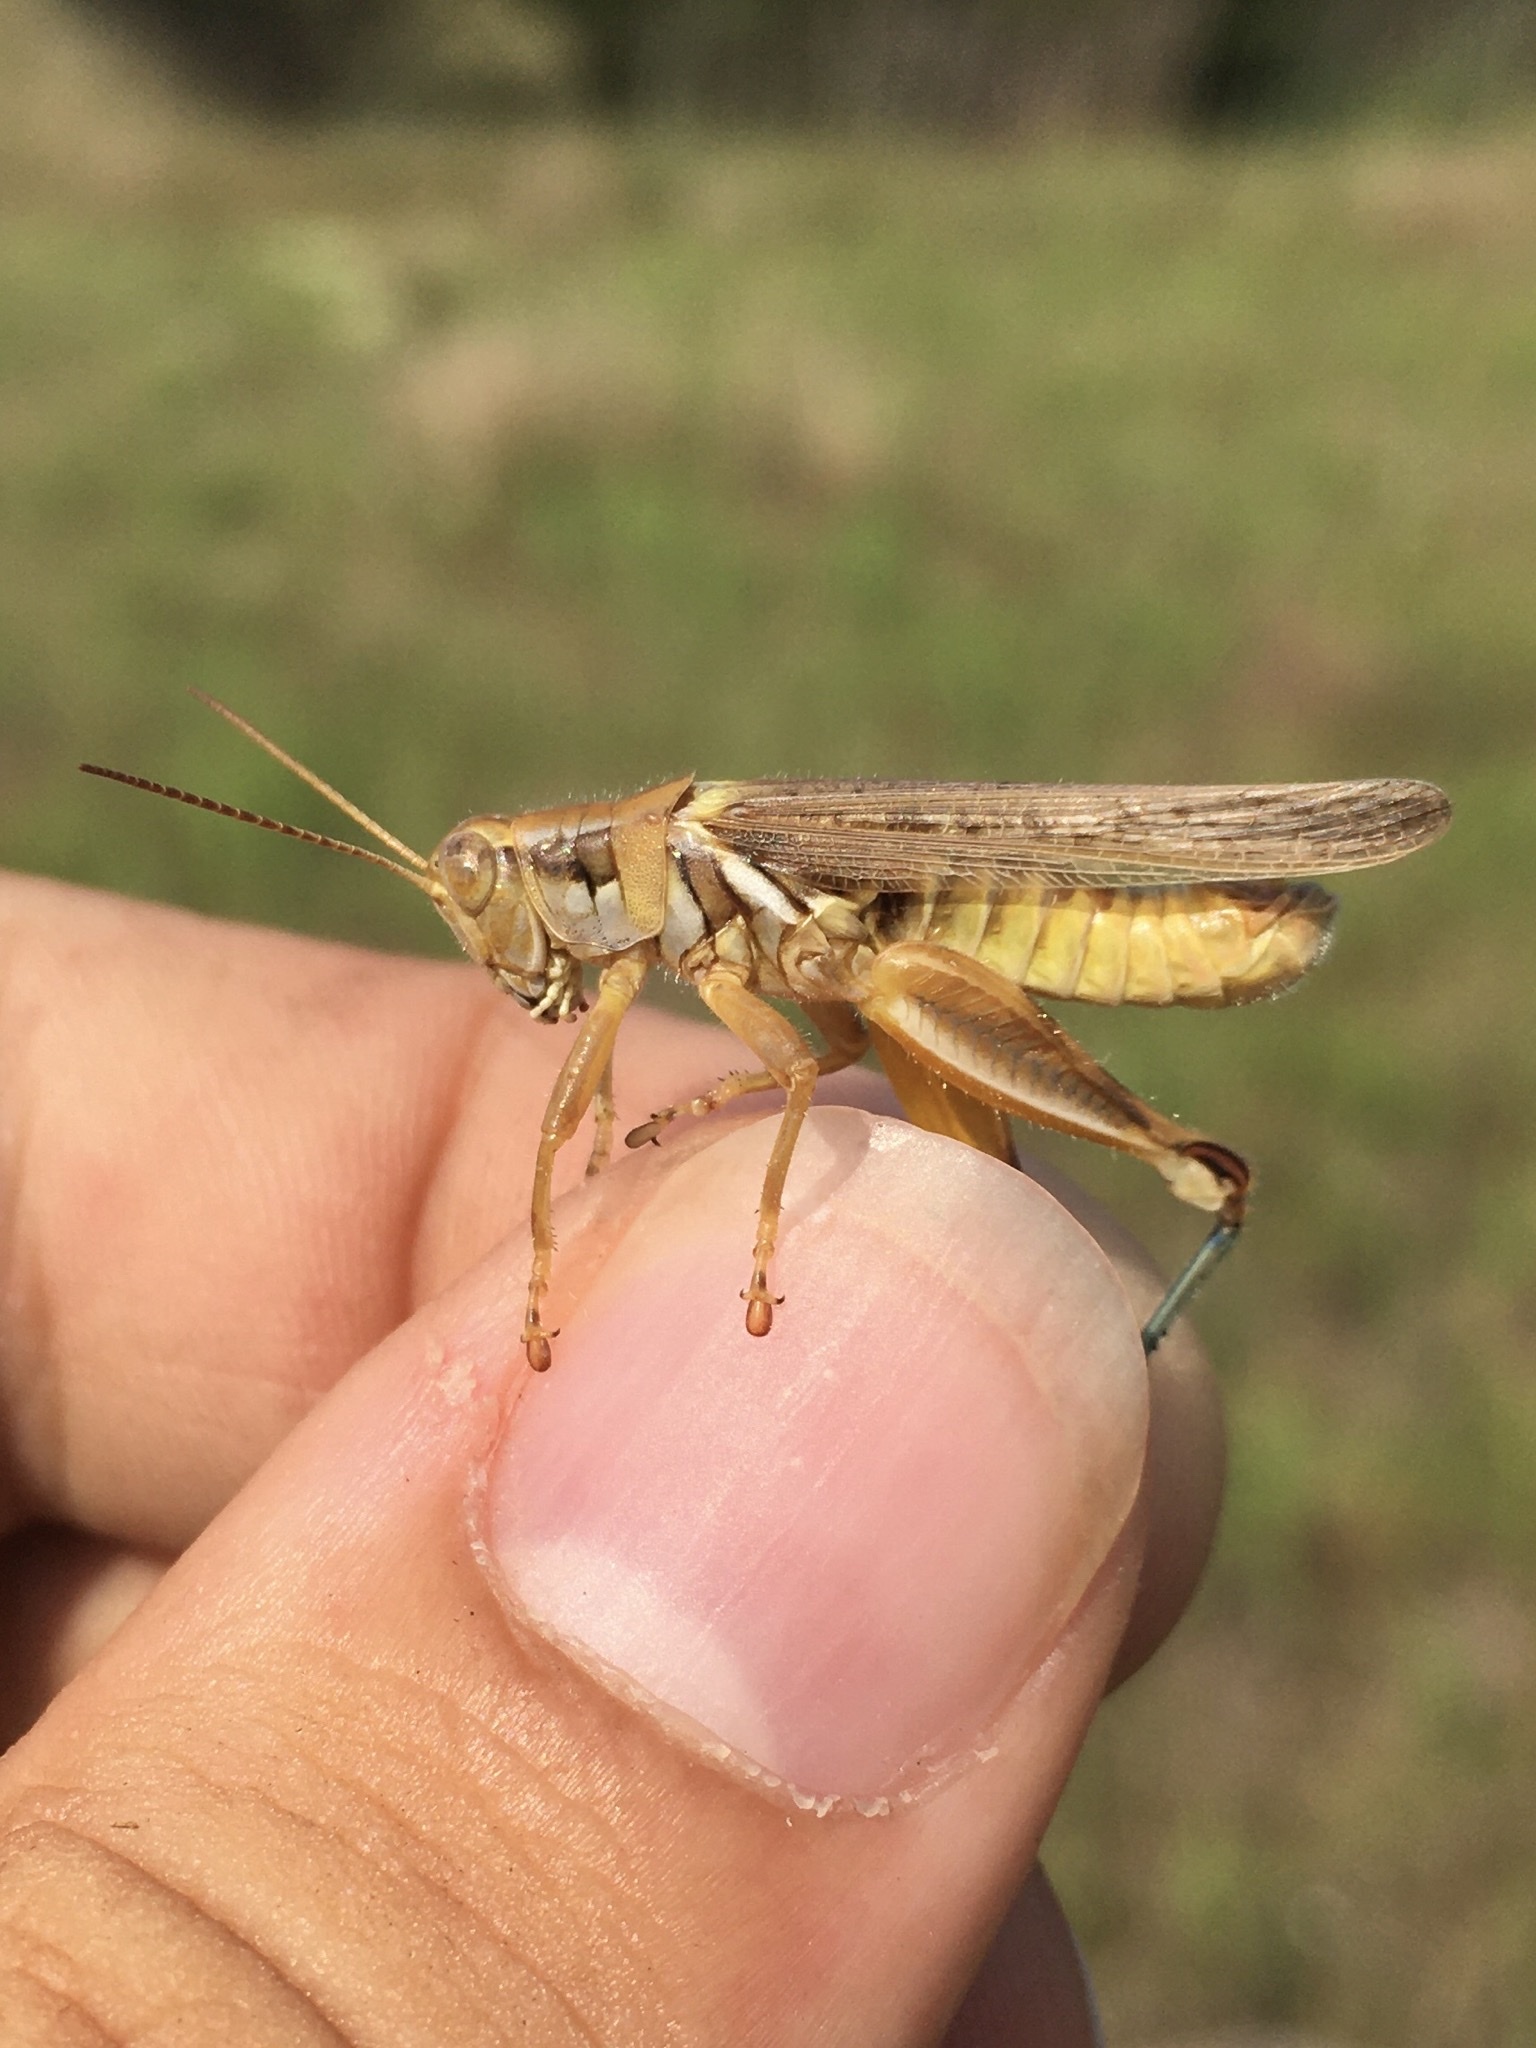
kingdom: Animalia
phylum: Arthropoda
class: Insecta
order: Orthoptera
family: Acrididae
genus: Melanoplus
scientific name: Melanoplus flavidus
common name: Blue-legged locust
